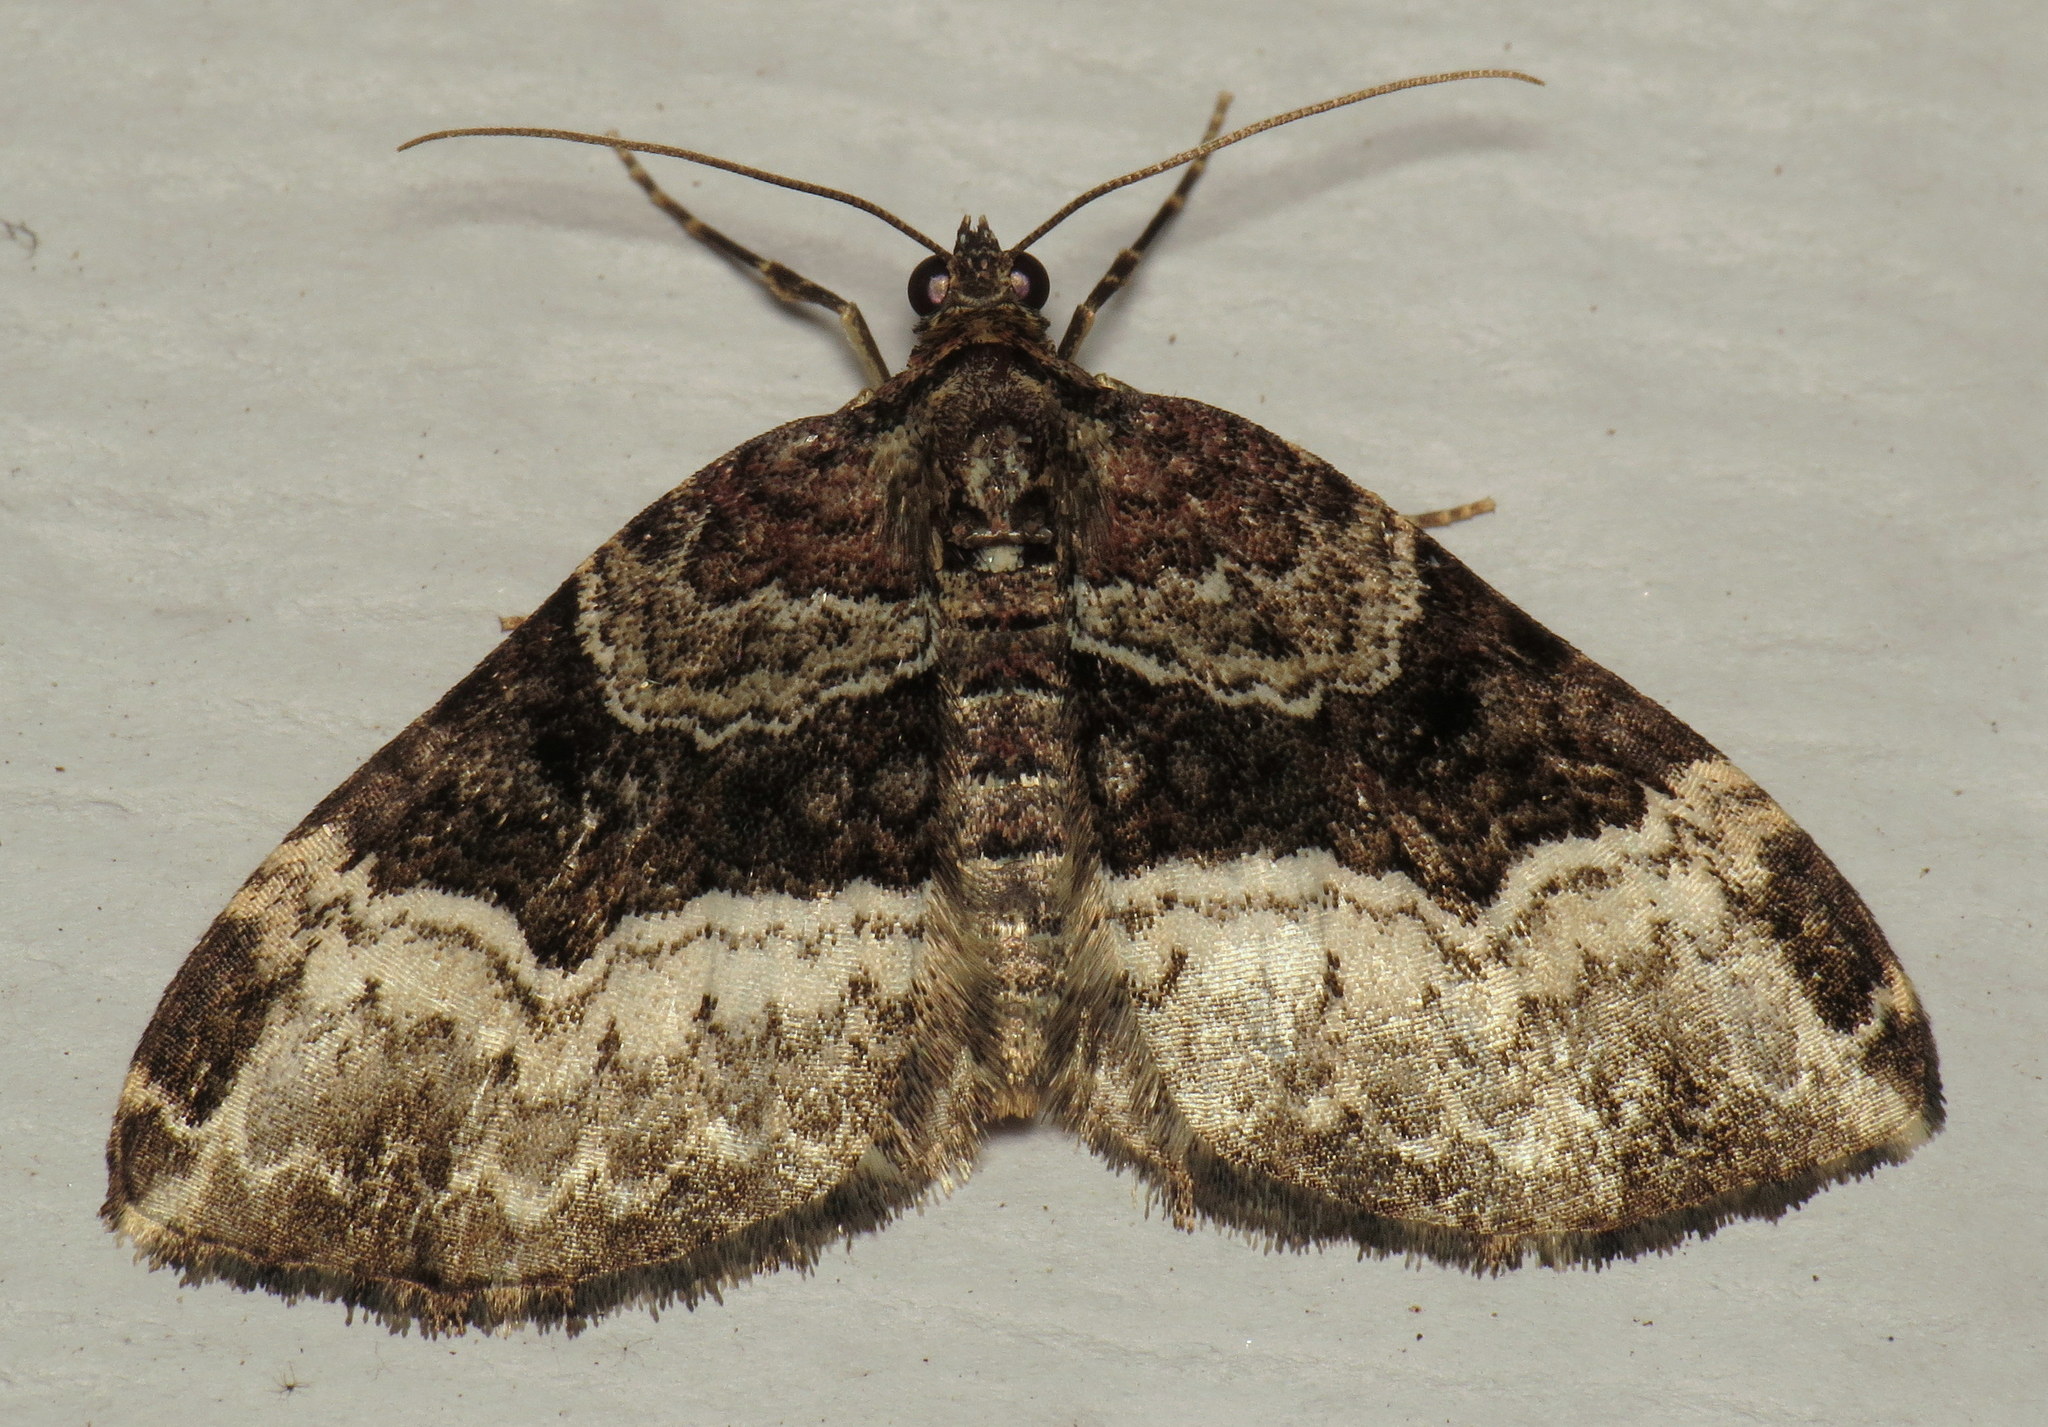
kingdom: Animalia
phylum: Arthropoda
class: Insecta
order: Lepidoptera
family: Geometridae
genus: Euphyia
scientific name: Euphyia intermediata
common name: Sharp-angled carpet
